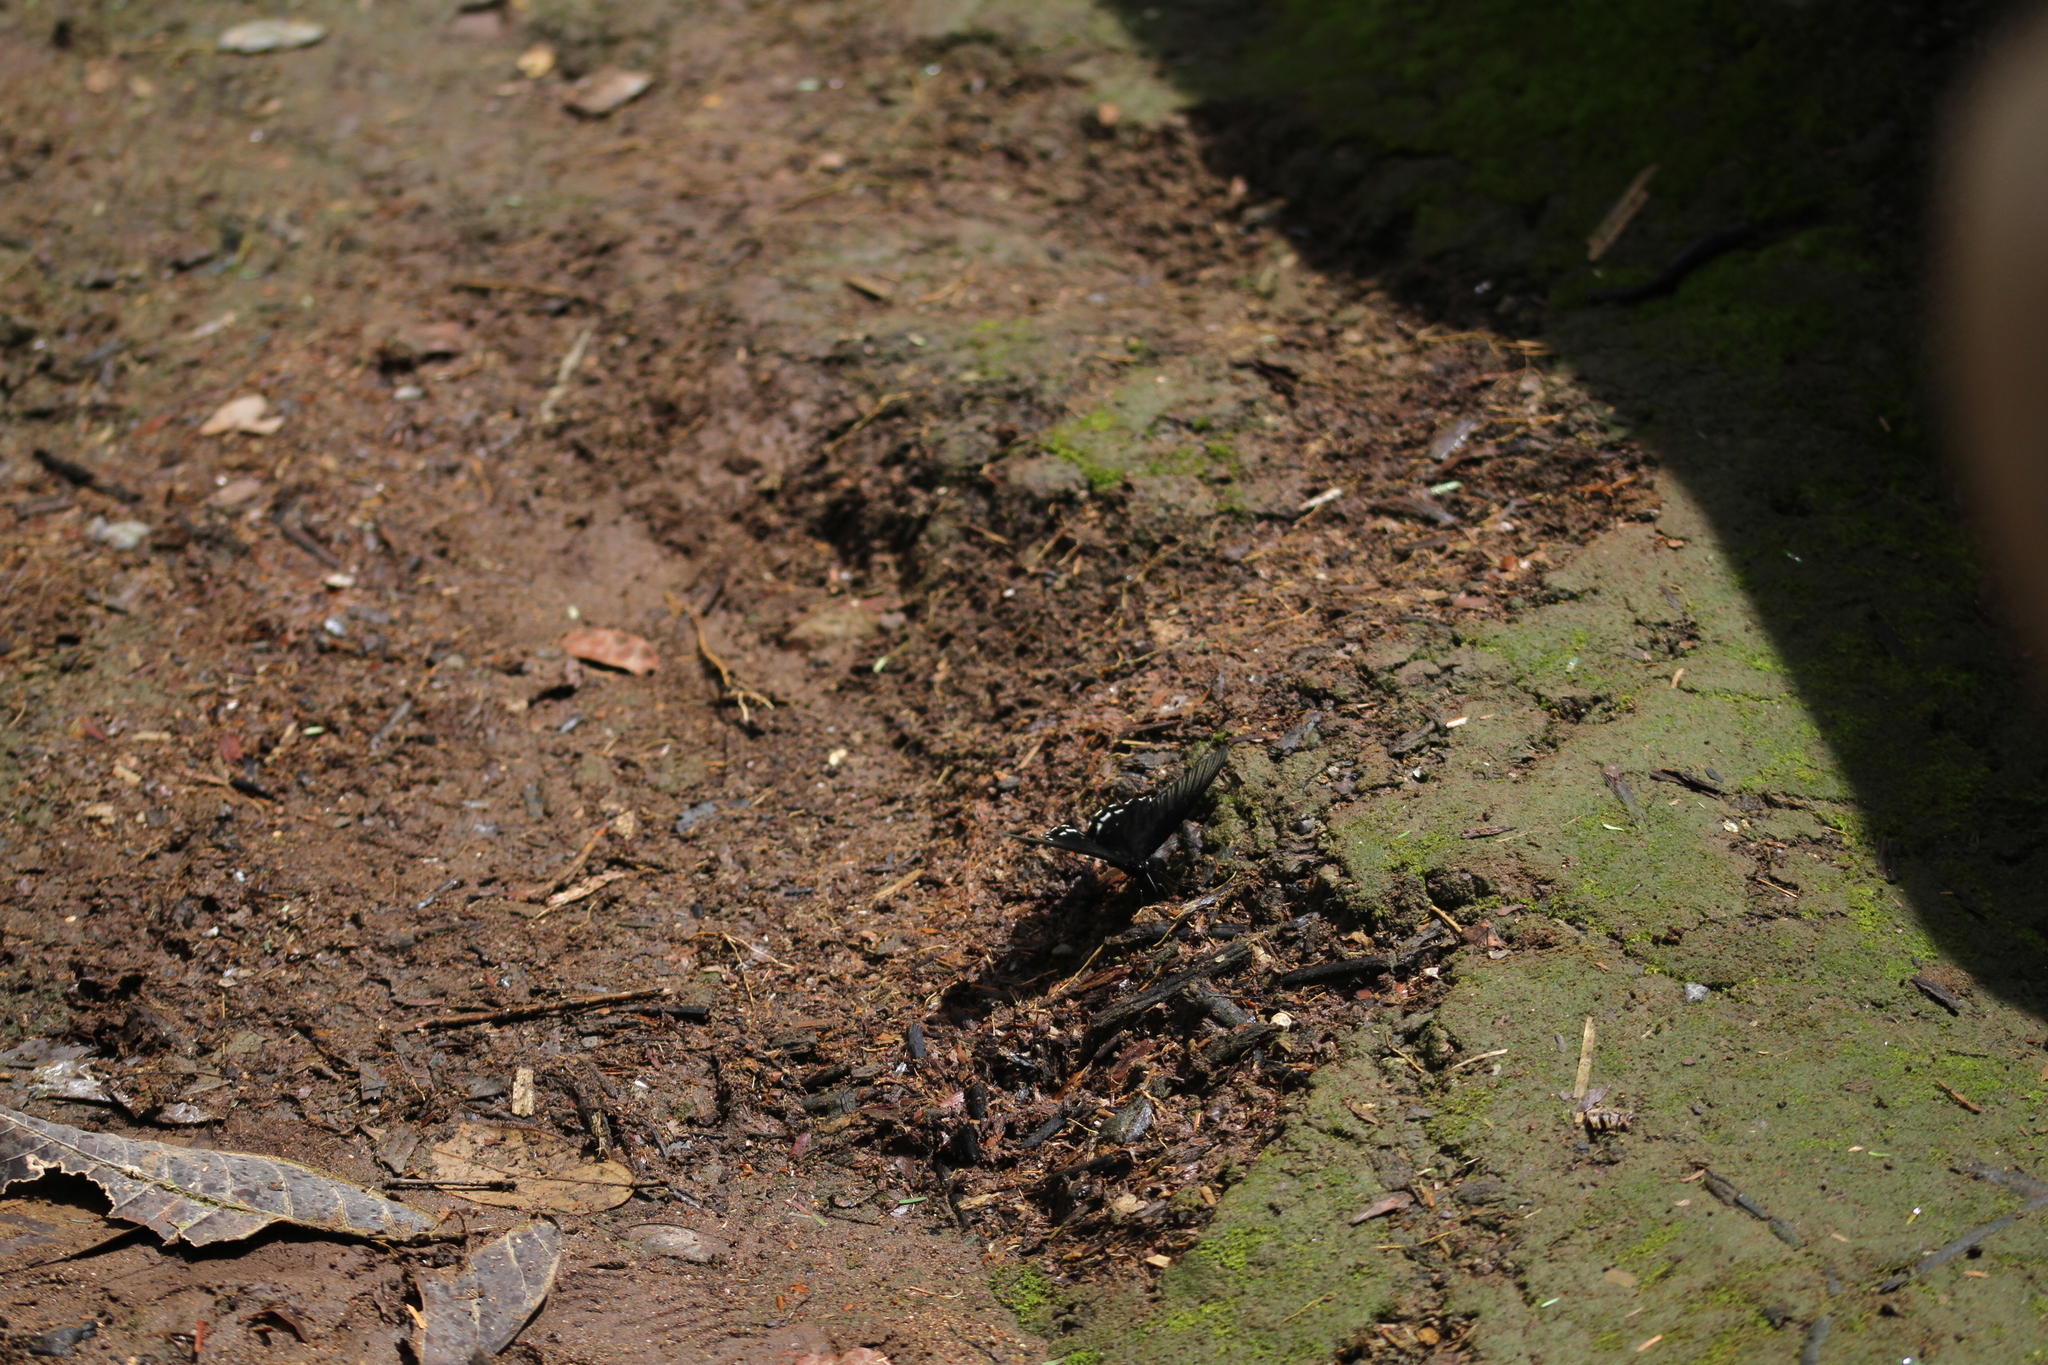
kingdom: Animalia
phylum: Arthropoda
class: Insecta
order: Lepidoptera
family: Papilionidae
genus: Papilio
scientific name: Papilio forbesi
